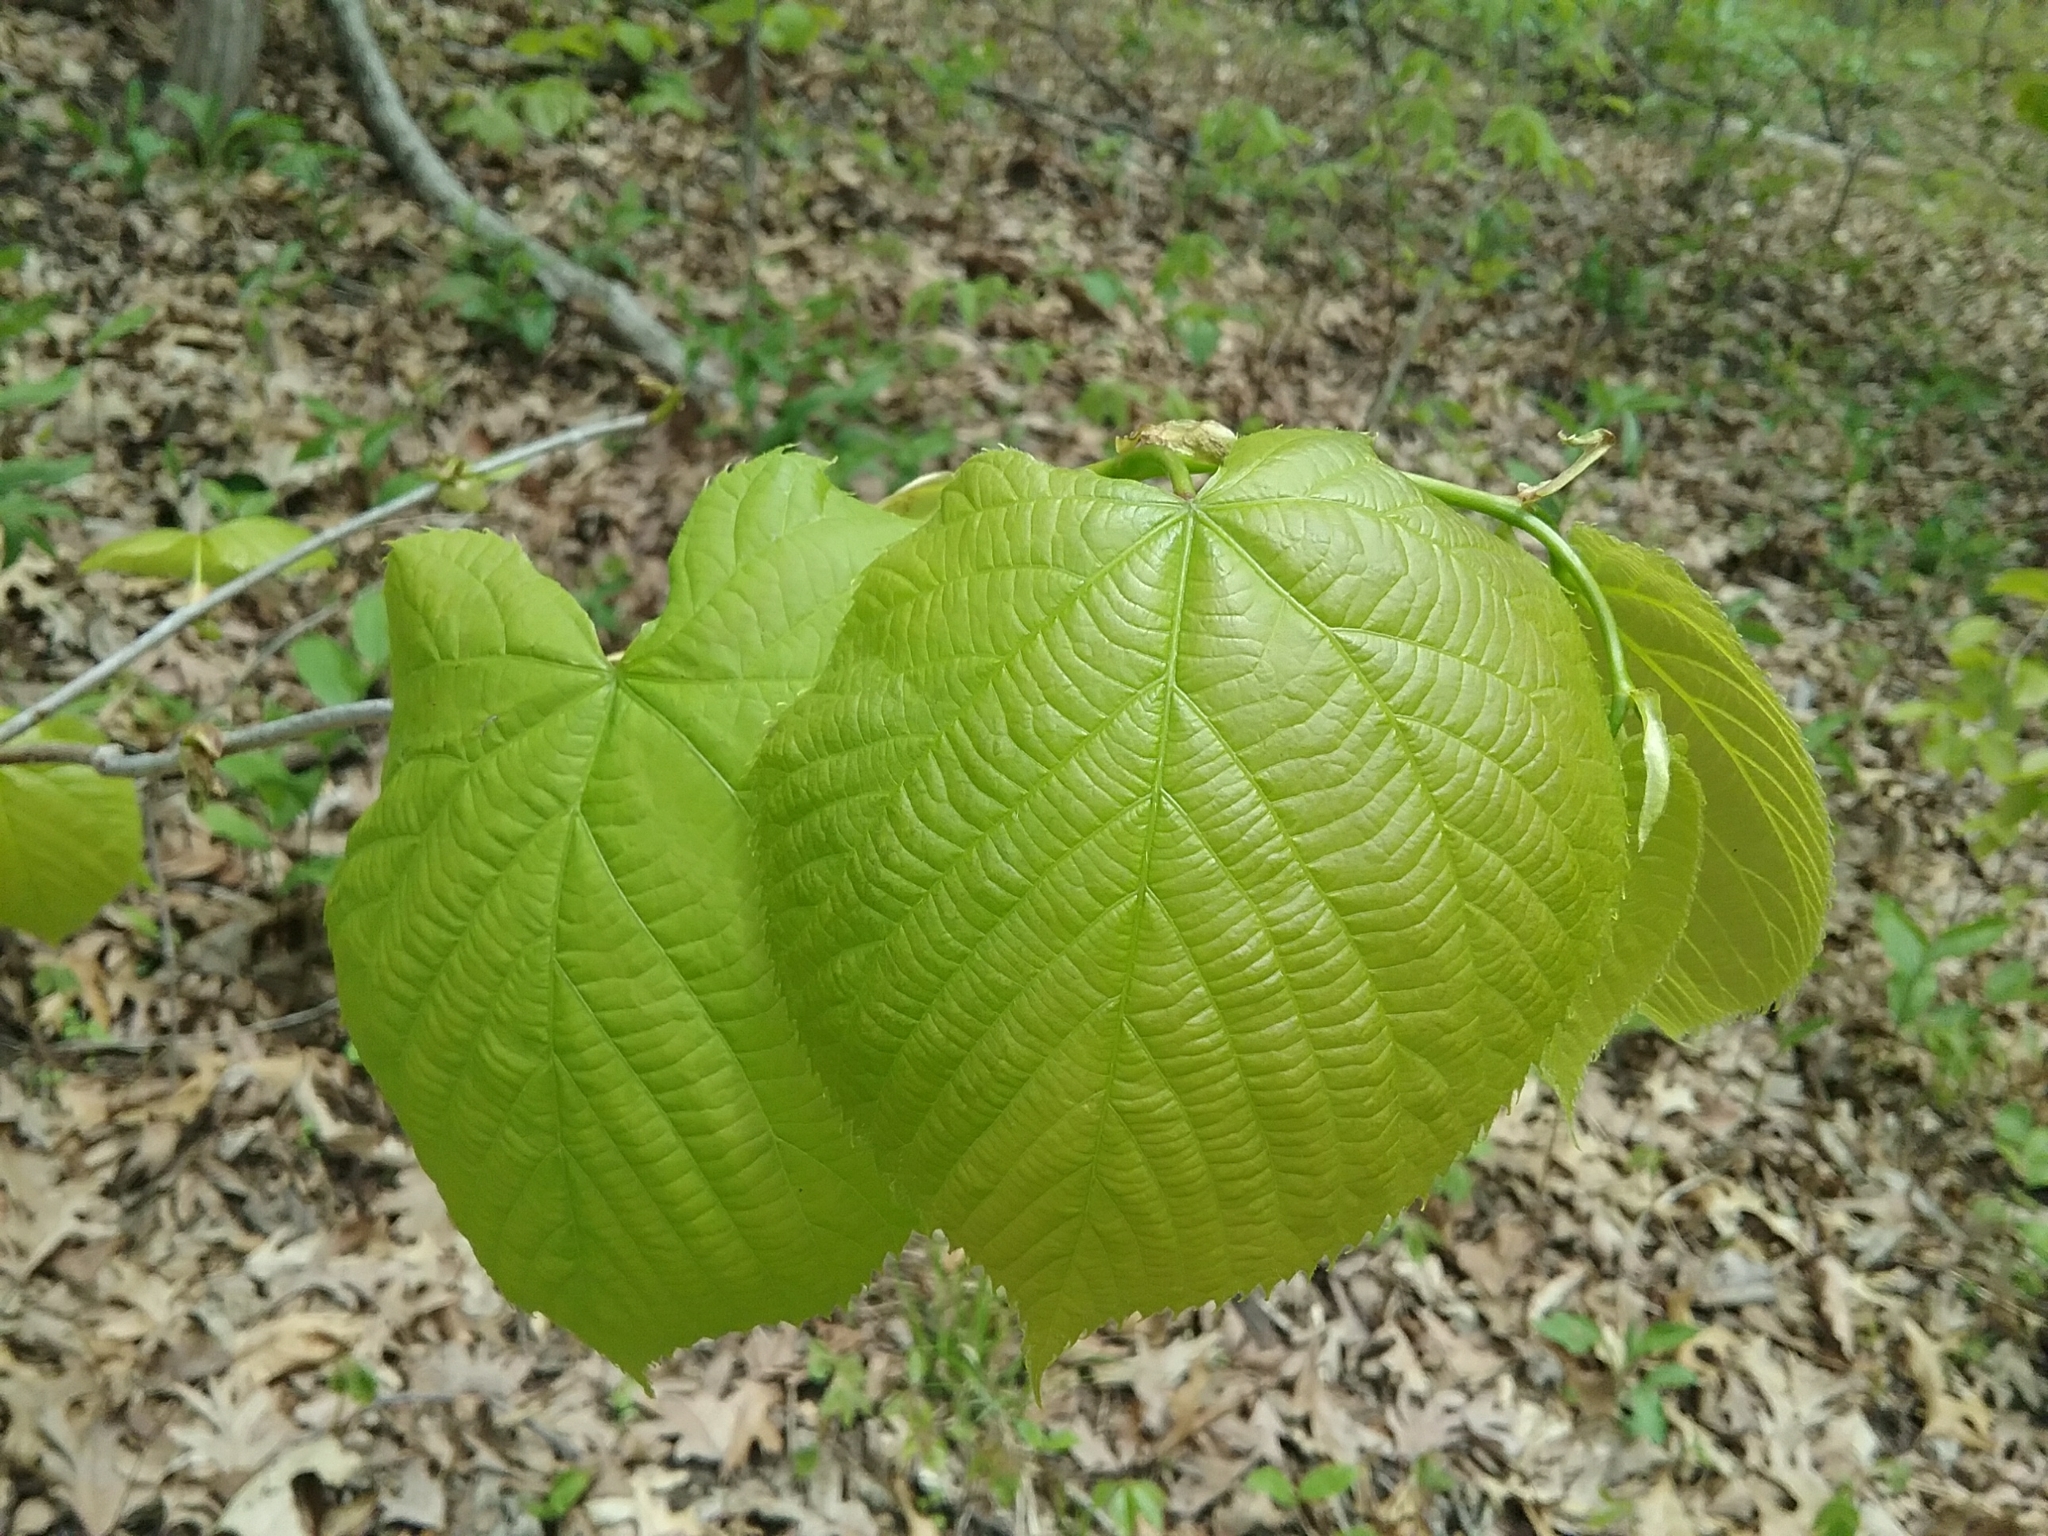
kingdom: Plantae
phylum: Tracheophyta
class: Magnoliopsida
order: Malvales
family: Malvaceae
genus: Tilia
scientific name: Tilia americana
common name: Basswood
